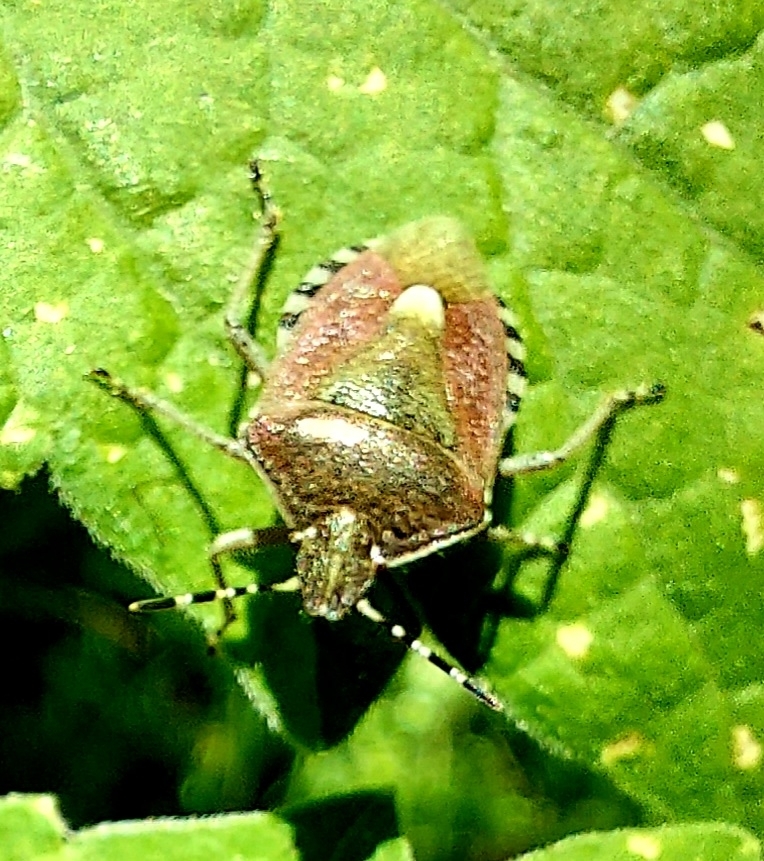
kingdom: Animalia
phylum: Arthropoda
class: Insecta
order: Hemiptera
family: Pentatomidae
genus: Dolycoris
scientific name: Dolycoris baccarum
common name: Sloe bug
